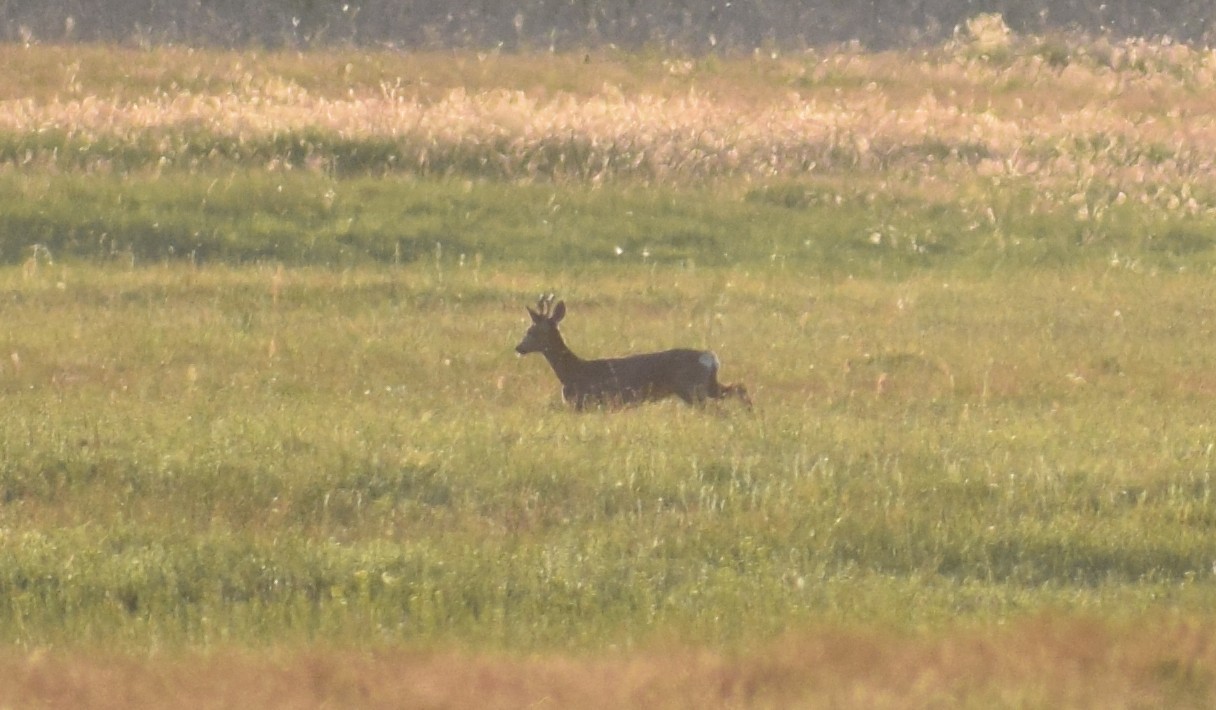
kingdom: Animalia
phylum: Chordata
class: Mammalia
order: Artiodactyla
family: Cervidae
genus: Capreolus
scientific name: Capreolus capreolus
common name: Western roe deer
